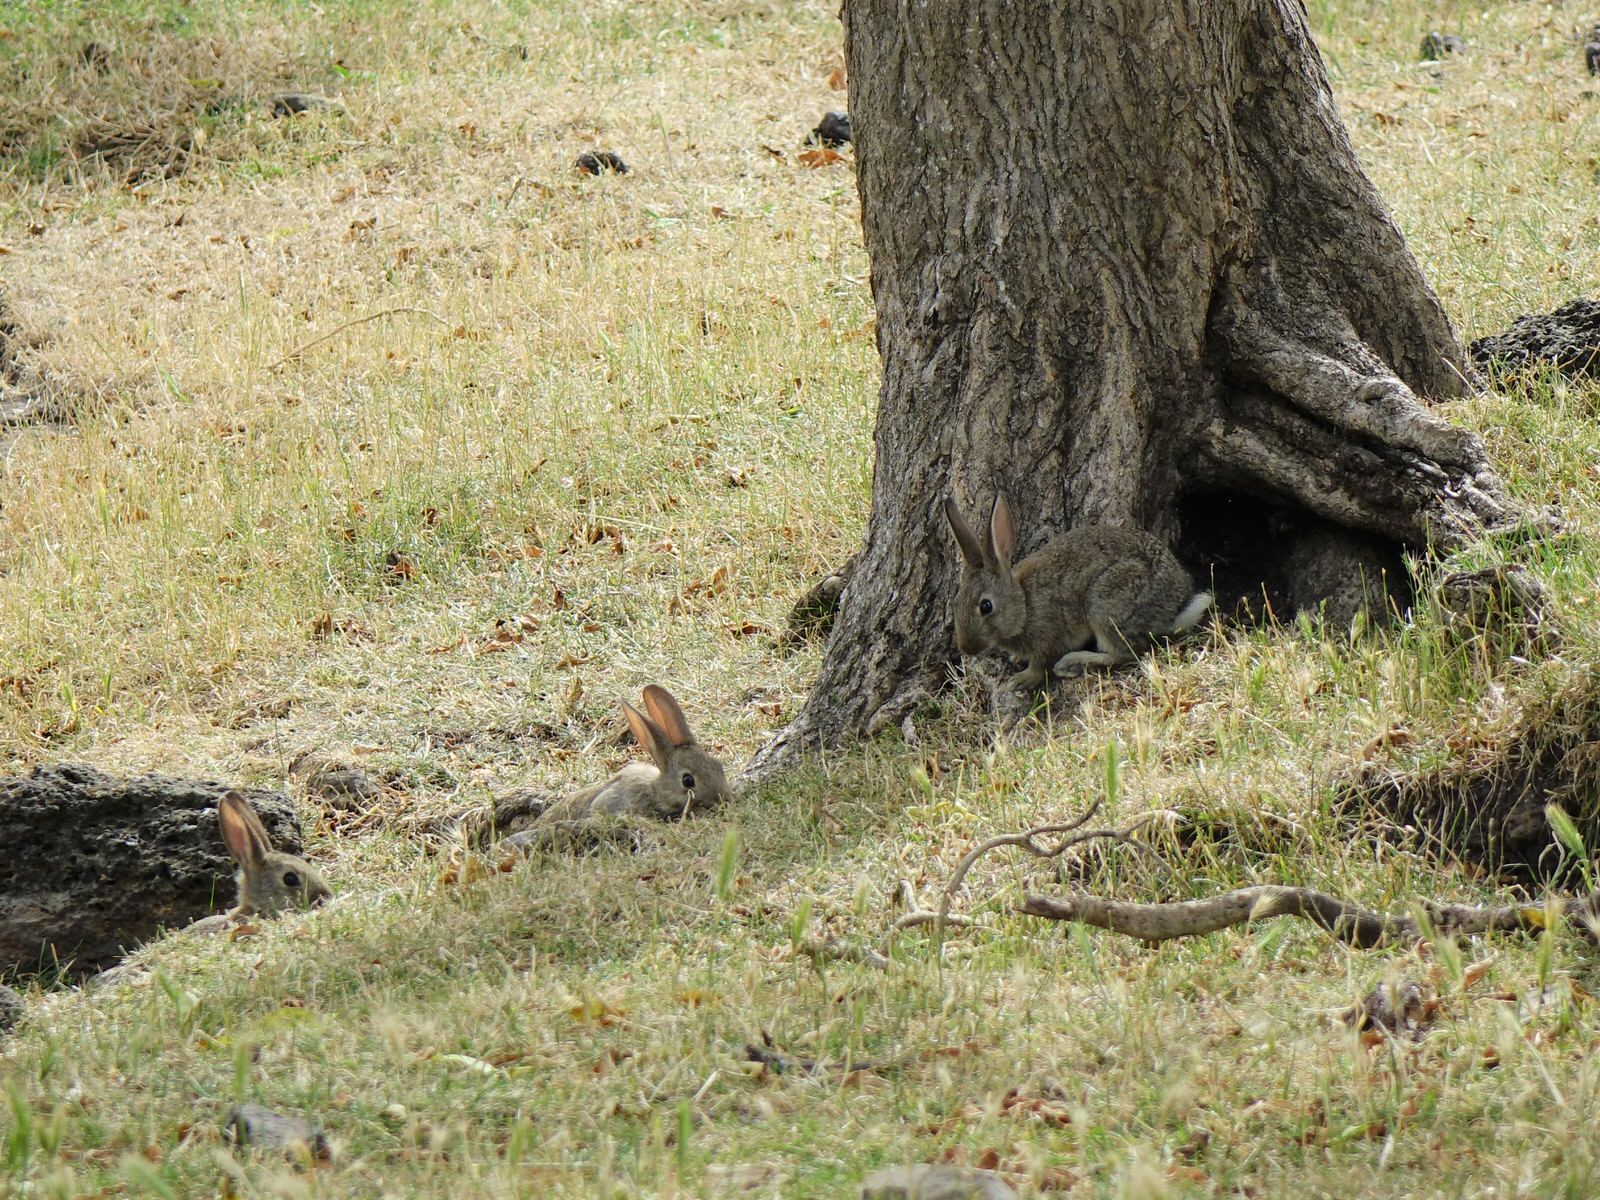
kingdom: Animalia
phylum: Chordata
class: Mammalia
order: Lagomorpha
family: Leporidae
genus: Oryctolagus
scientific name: Oryctolagus cuniculus
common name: European rabbit
